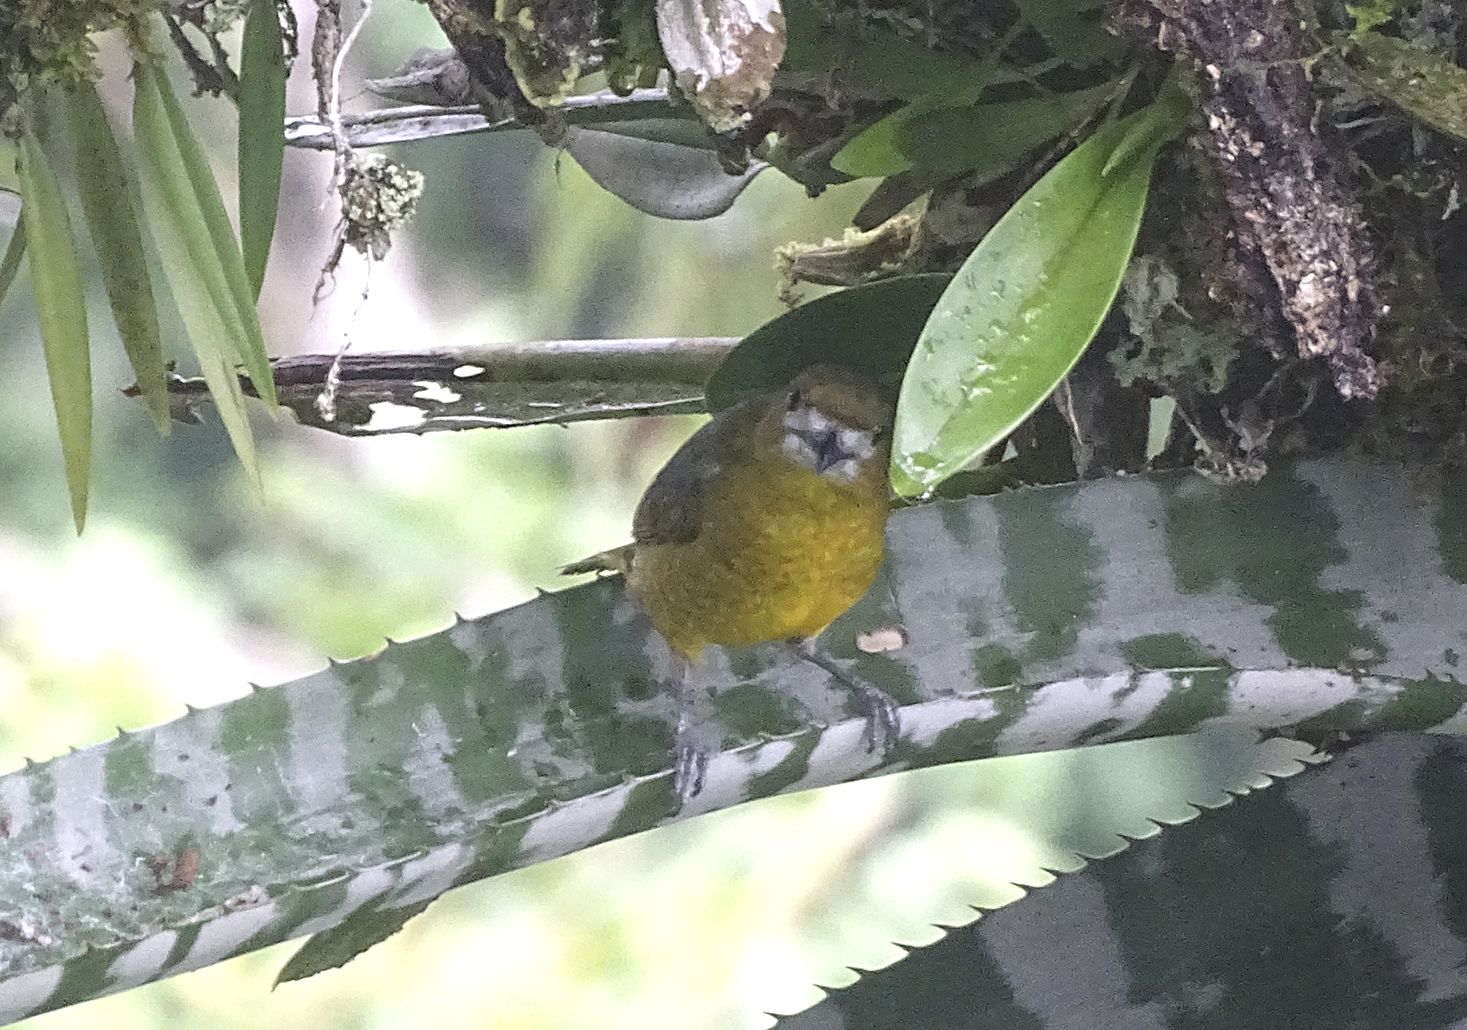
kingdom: Animalia
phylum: Chordata
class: Aves
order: Passeriformes
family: Fringillidae
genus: Euphonia
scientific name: Euphonia chrysopasta
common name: White-lored euphonia
